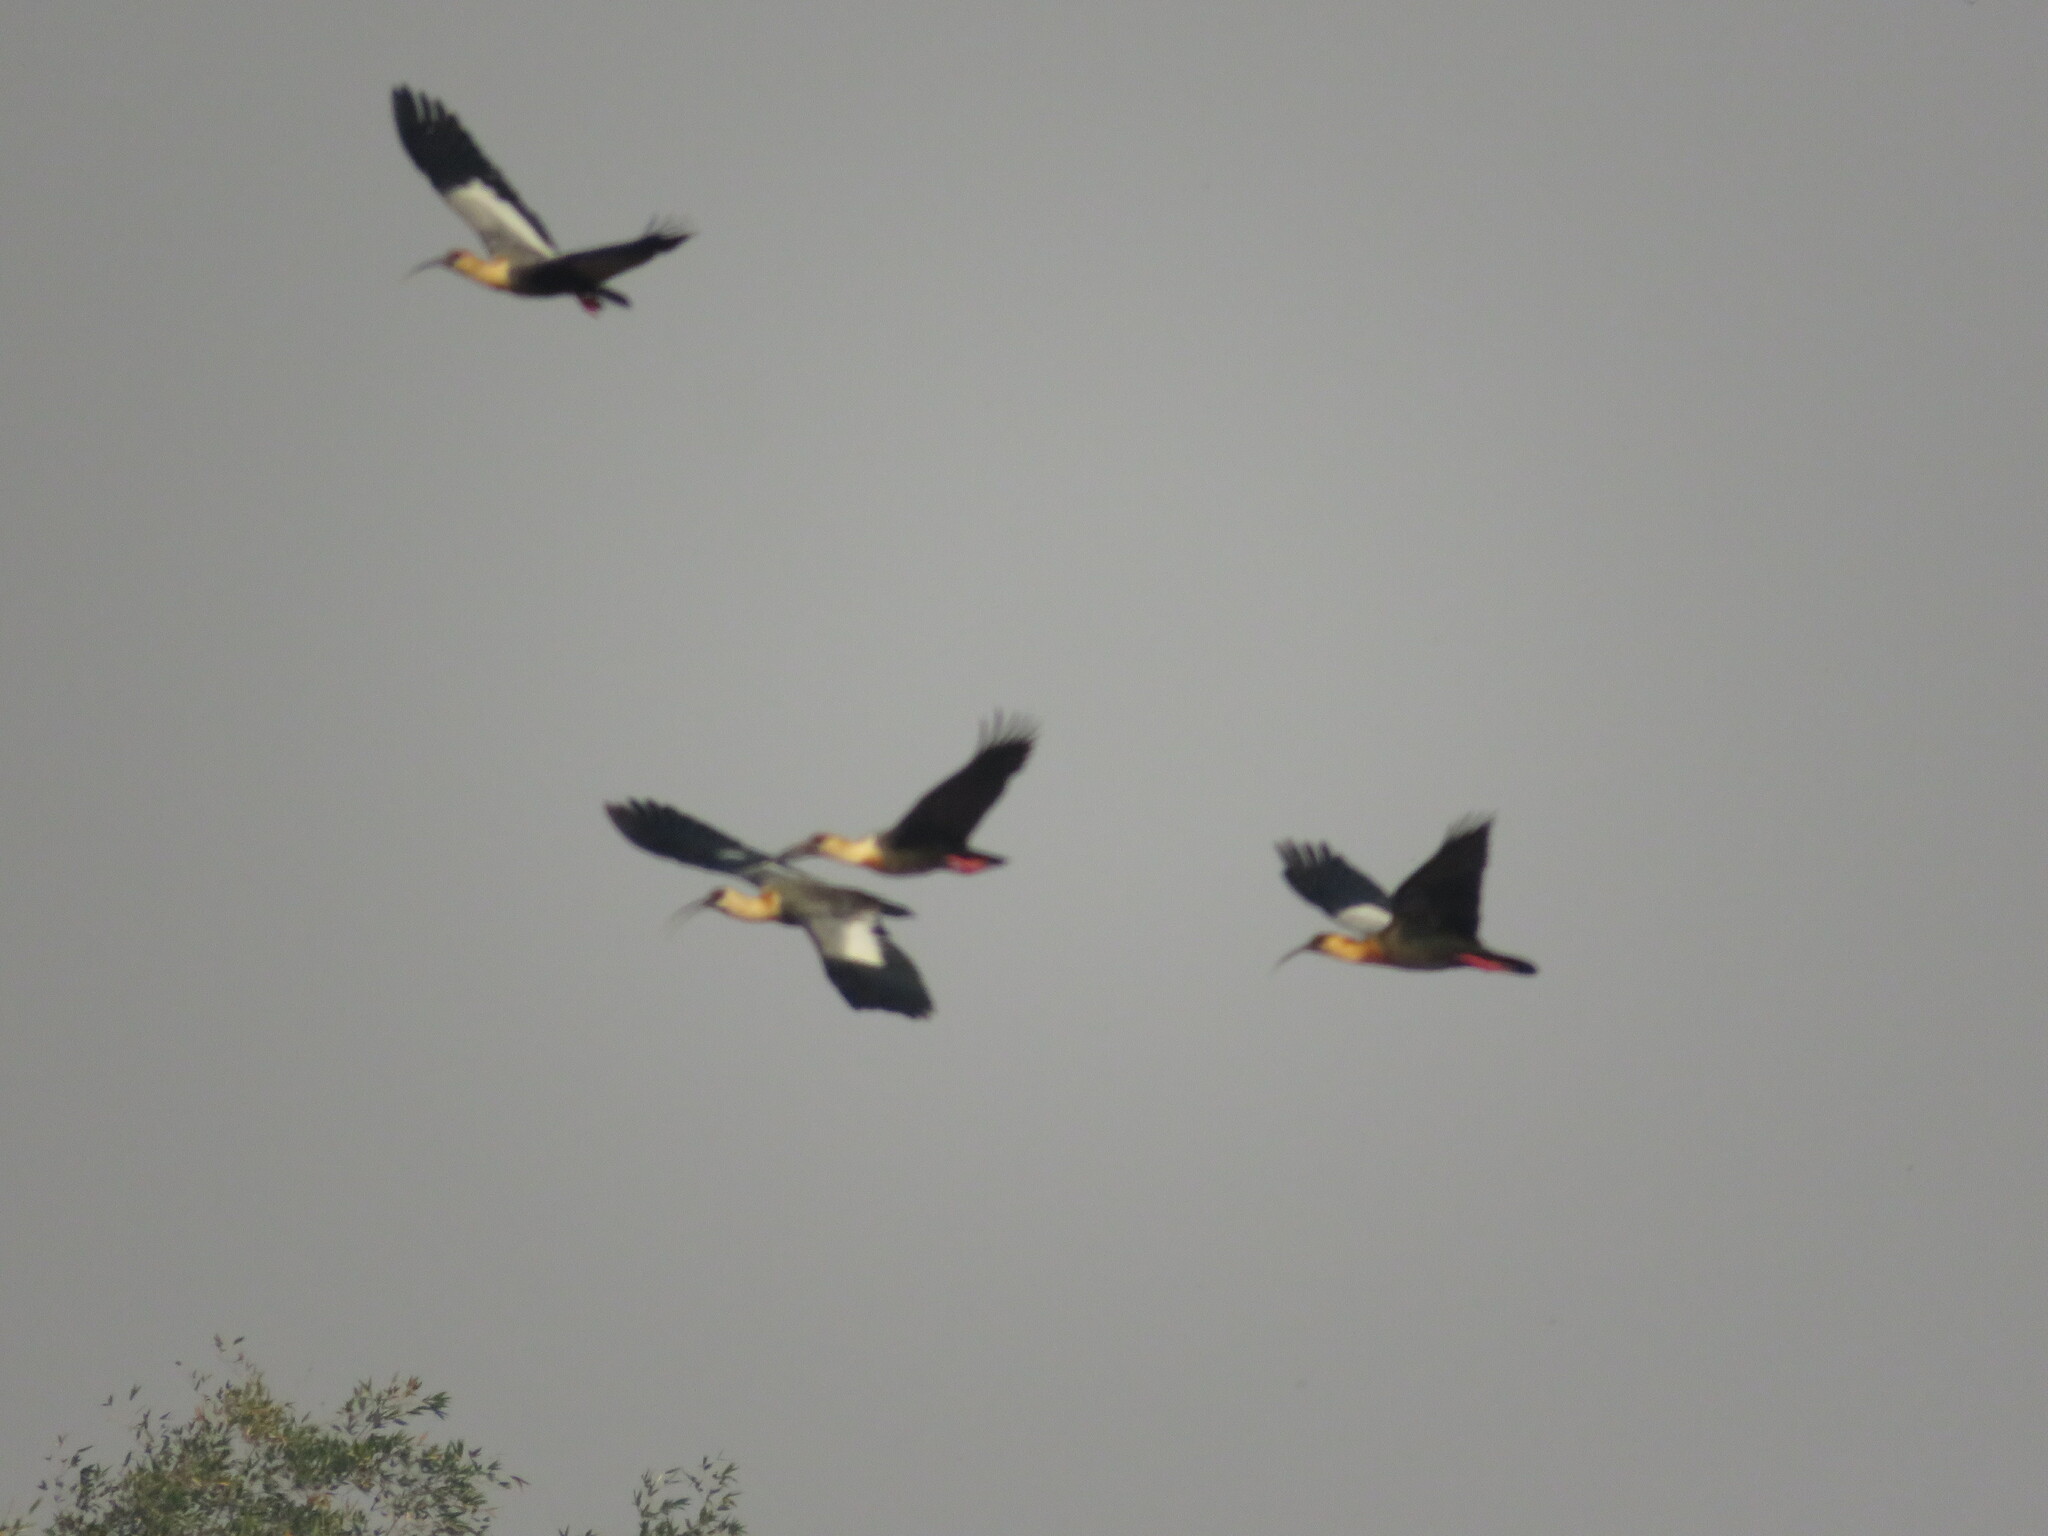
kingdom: Animalia
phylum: Chordata
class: Aves
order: Pelecaniformes
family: Threskiornithidae
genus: Theristicus
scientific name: Theristicus caudatus
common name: Buff-necked ibis
